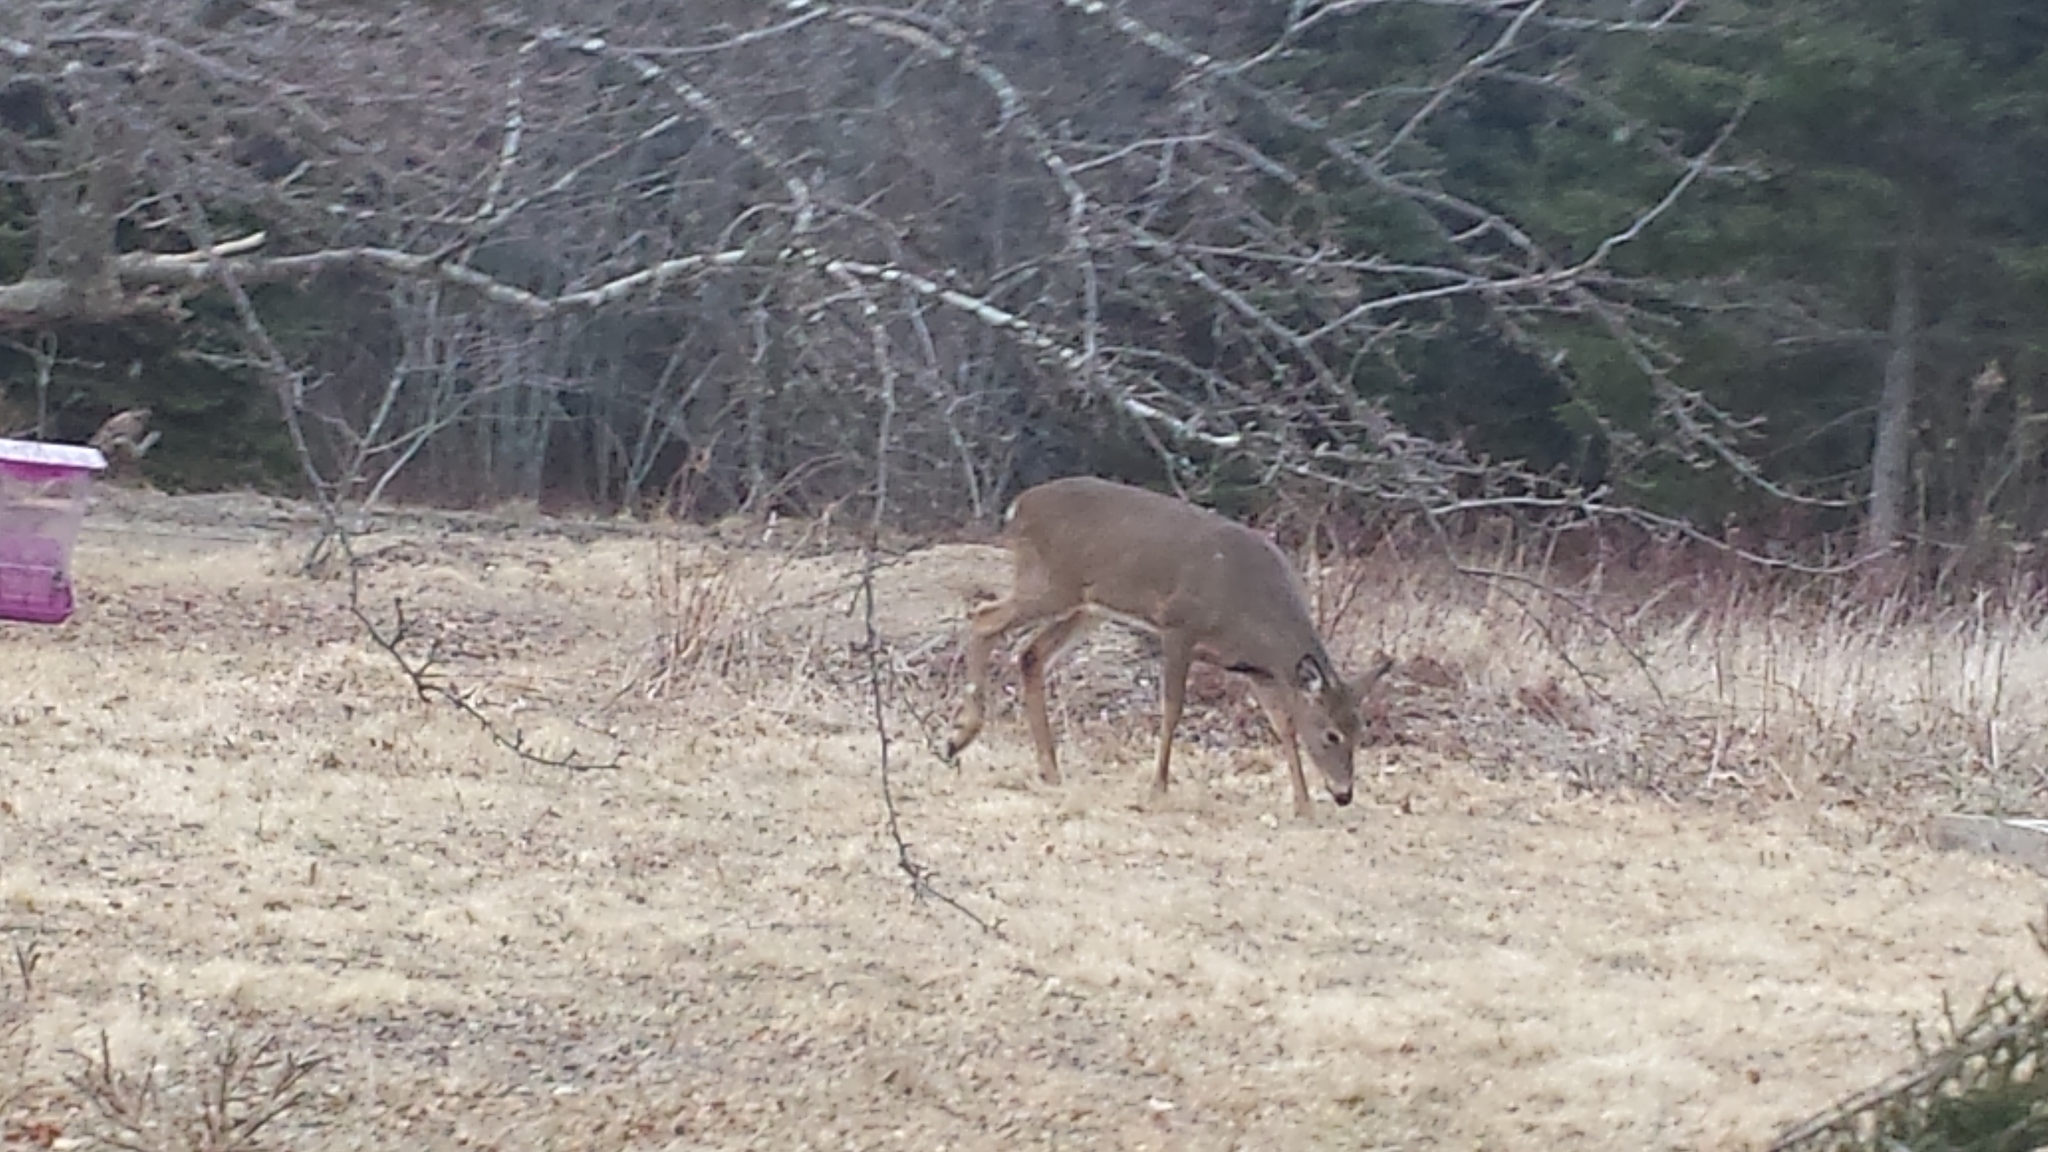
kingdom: Animalia
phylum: Chordata
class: Mammalia
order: Artiodactyla
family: Cervidae
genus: Odocoileus
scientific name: Odocoileus virginianus
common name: White-tailed deer
